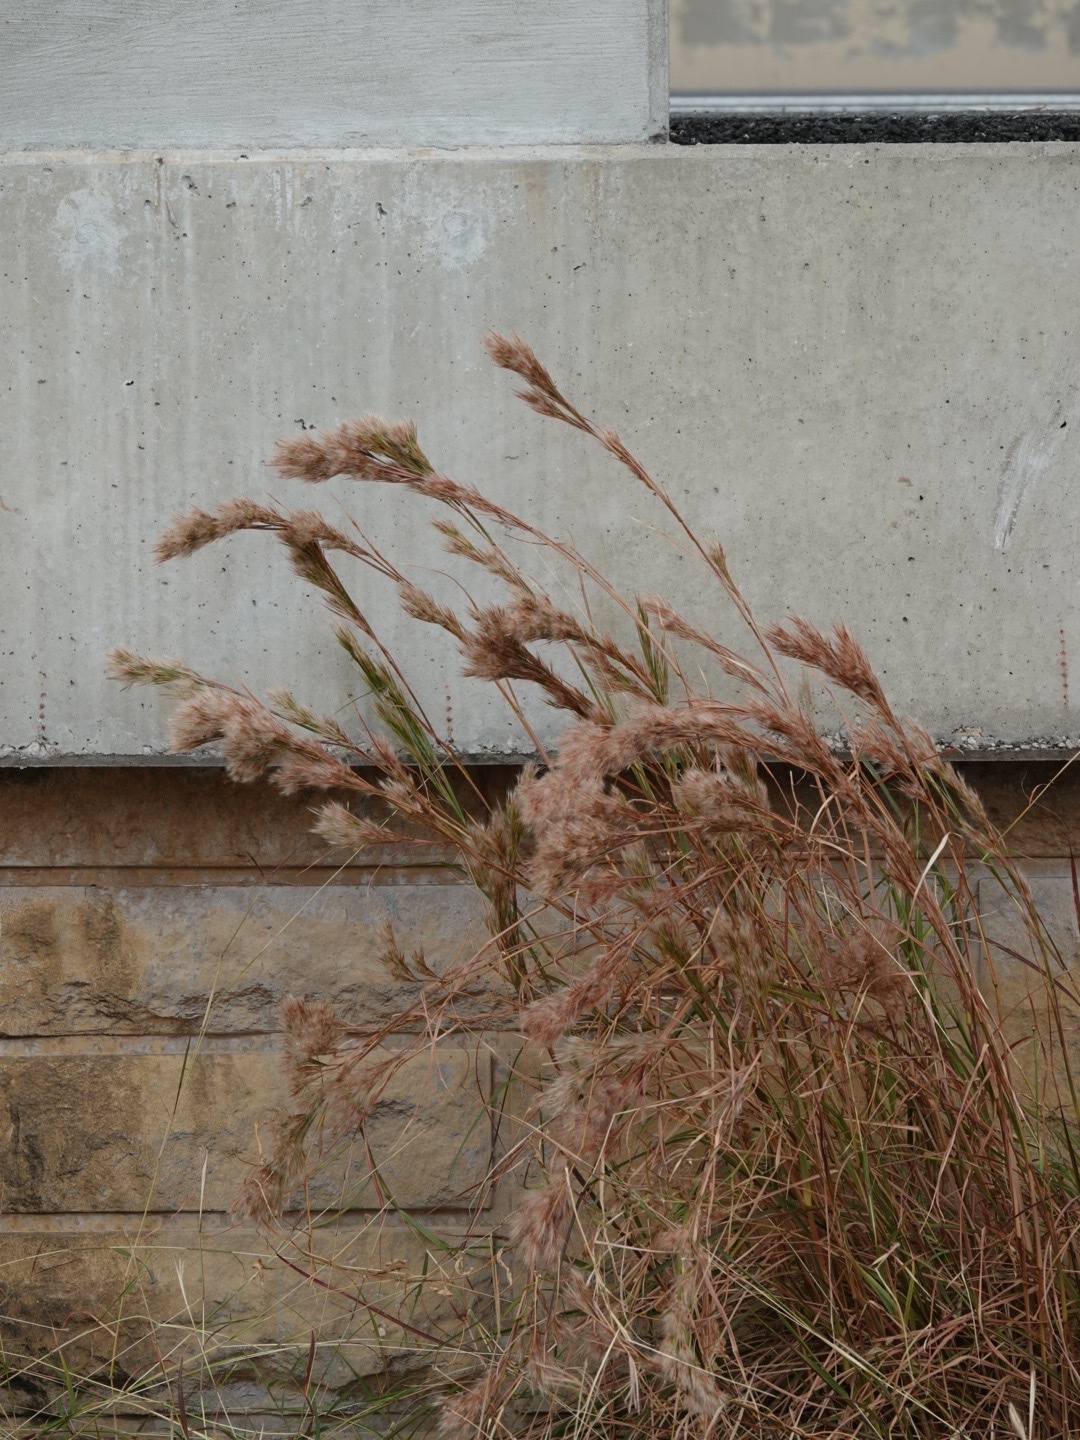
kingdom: Plantae
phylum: Tracheophyta
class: Liliopsida
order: Poales
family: Poaceae
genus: Andropogon
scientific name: Andropogon tenuispatheus
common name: Bushy bluestem
